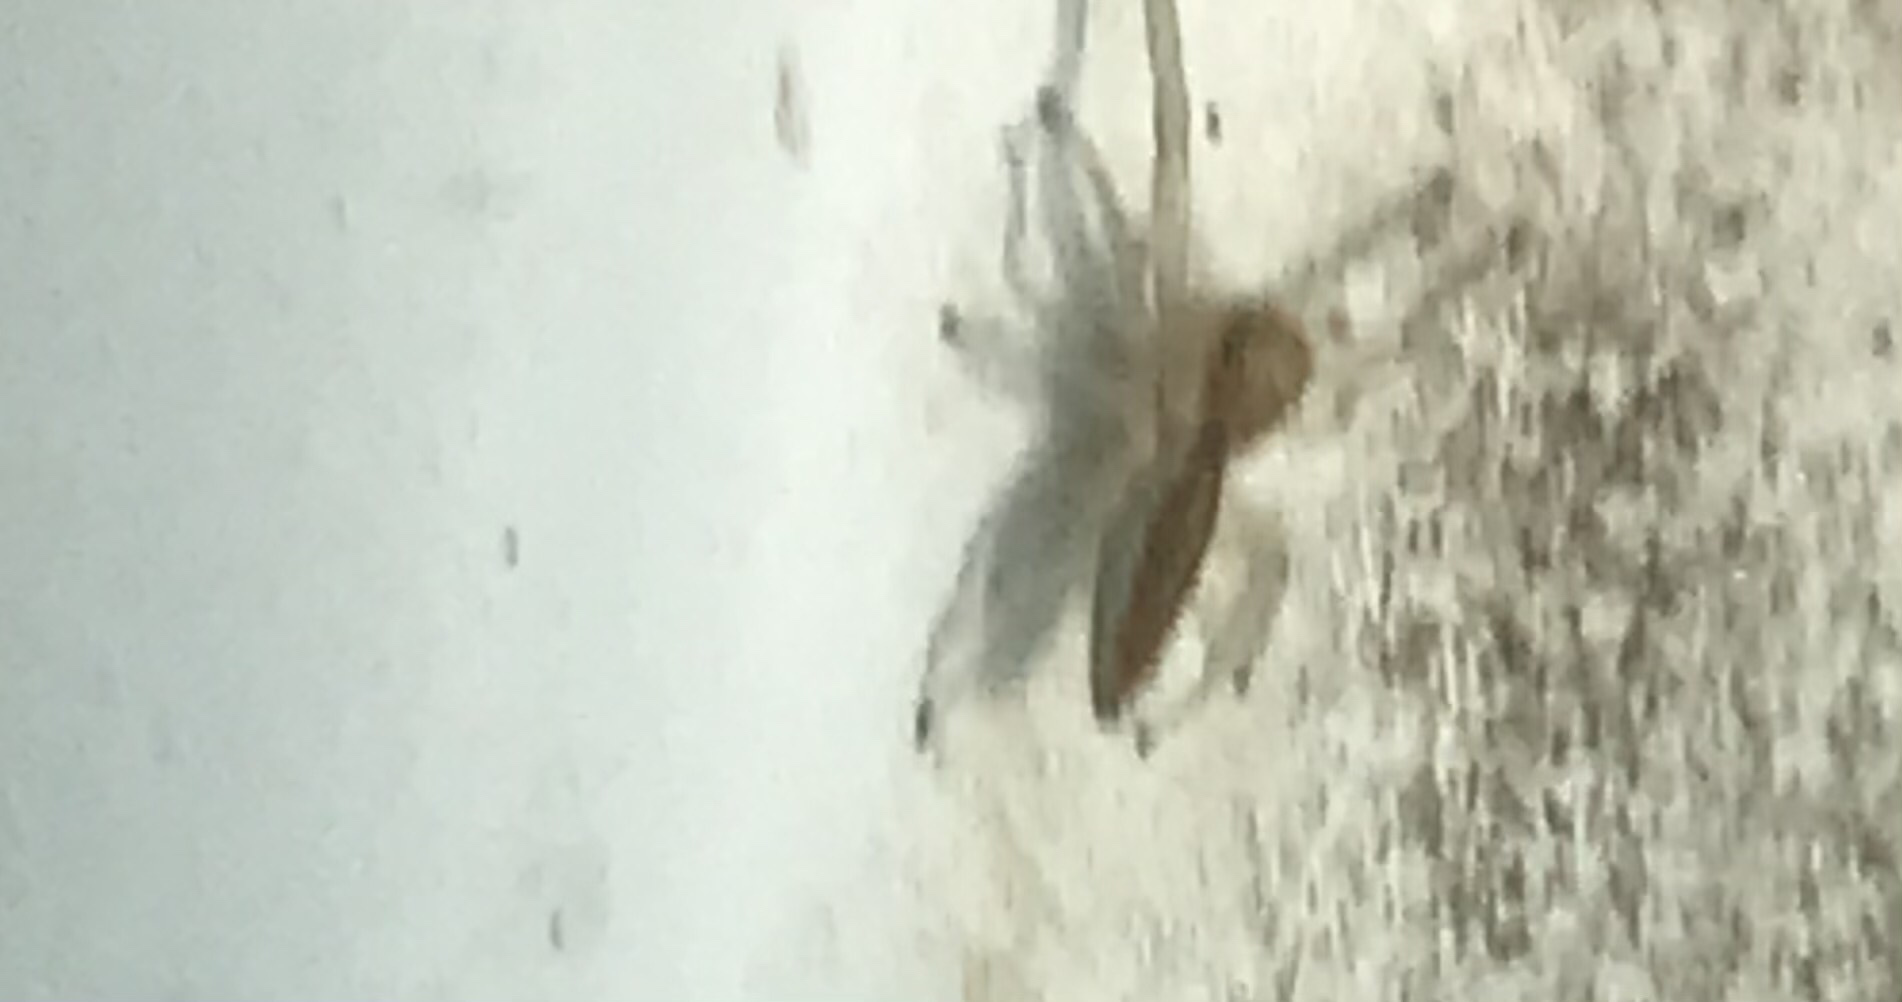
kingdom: Animalia
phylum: Arthropoda
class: Arachnida
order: Araneae
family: Salticidae
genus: Hentzia
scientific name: Hentzia mitrata
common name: White-jawed jumping spider
